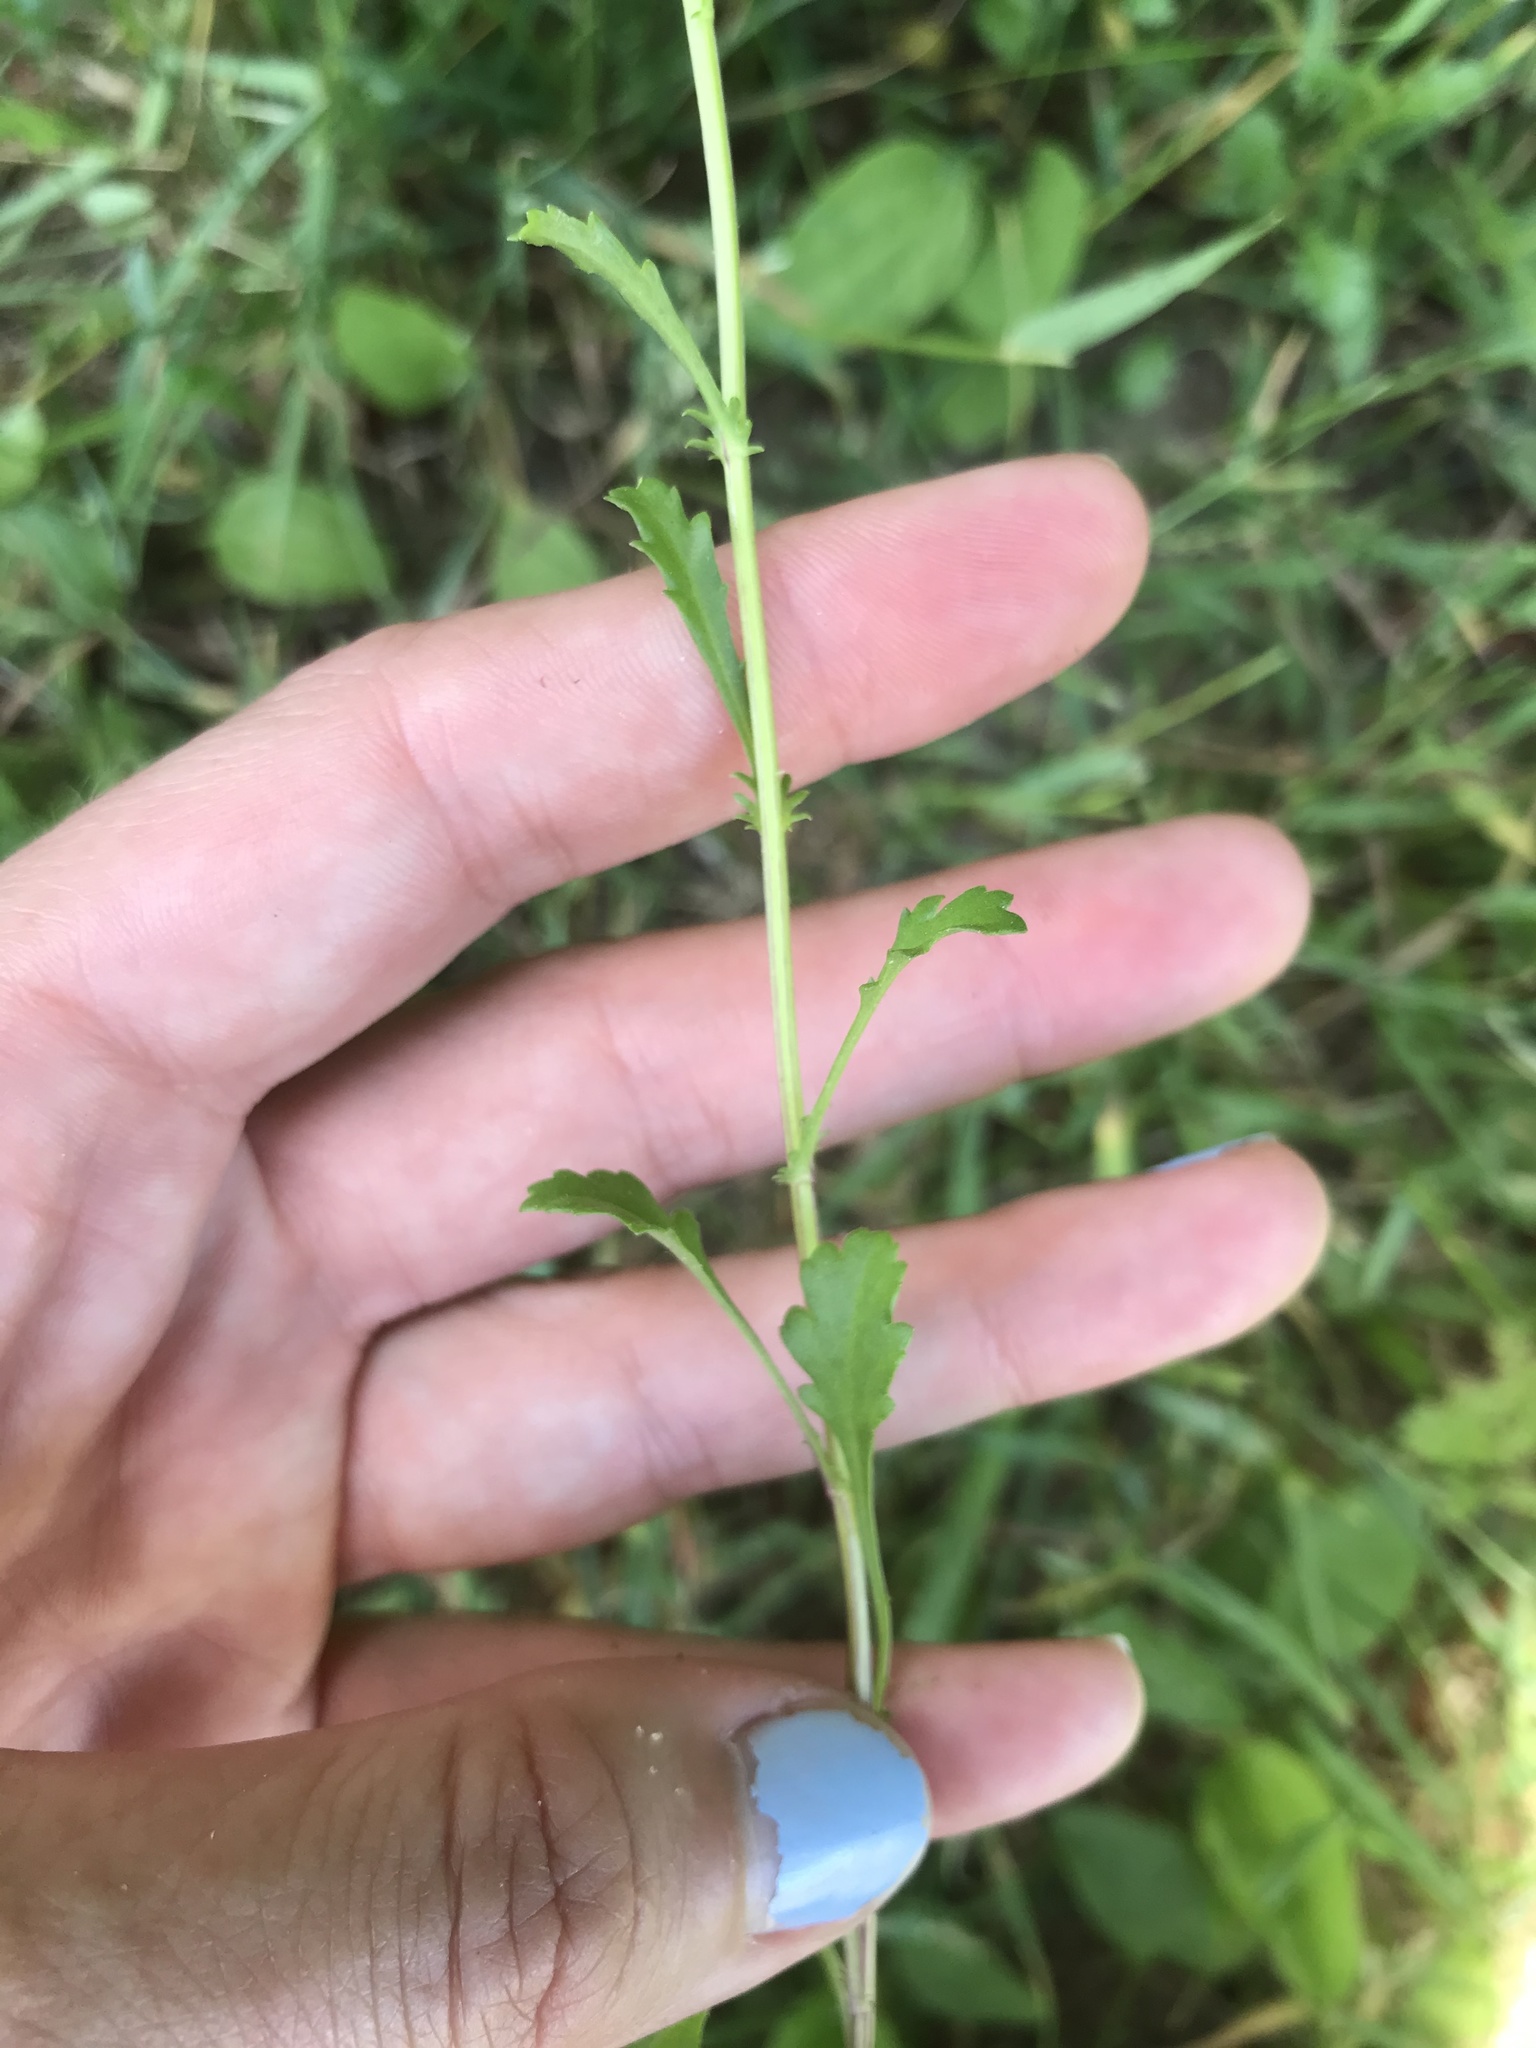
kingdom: Plantae
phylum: Tracheophyta
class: Magnoliopsida
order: Asterales
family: Asteraceae
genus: Leucanthemum
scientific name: Leucanthemum vulgare
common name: Oxeye daisy
